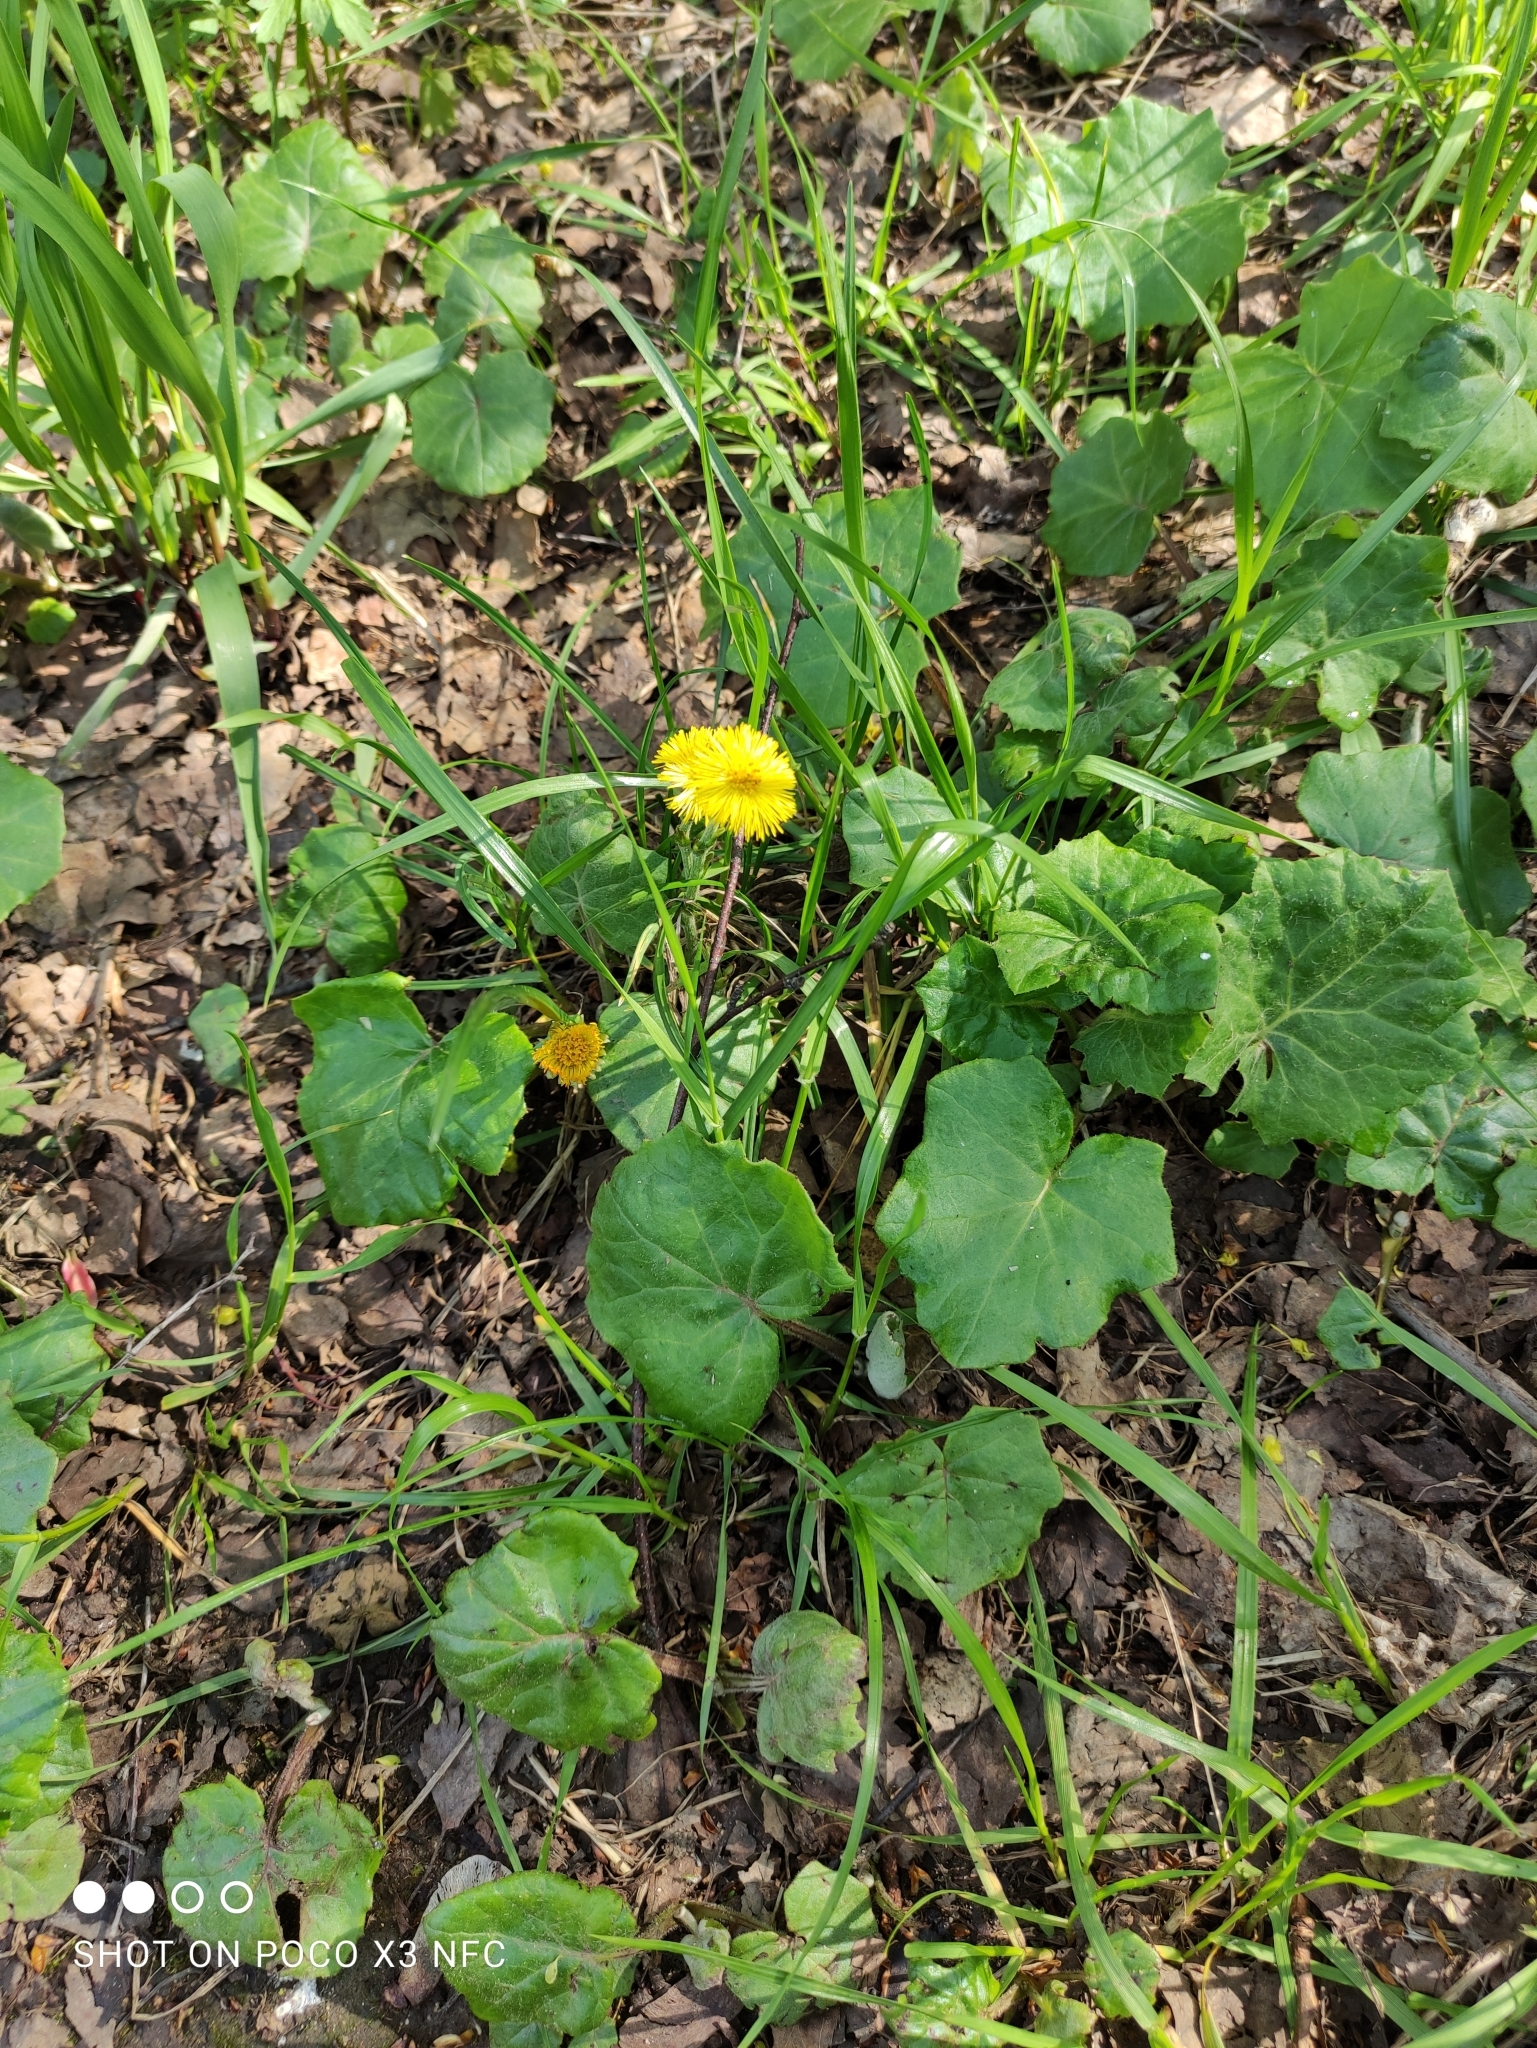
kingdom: Plantae
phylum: Tracheophyta
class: Magnoliopsida
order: Asterales
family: Asteraceae
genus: Tussilago
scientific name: Tussilago farfara
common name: Coltsfoot
